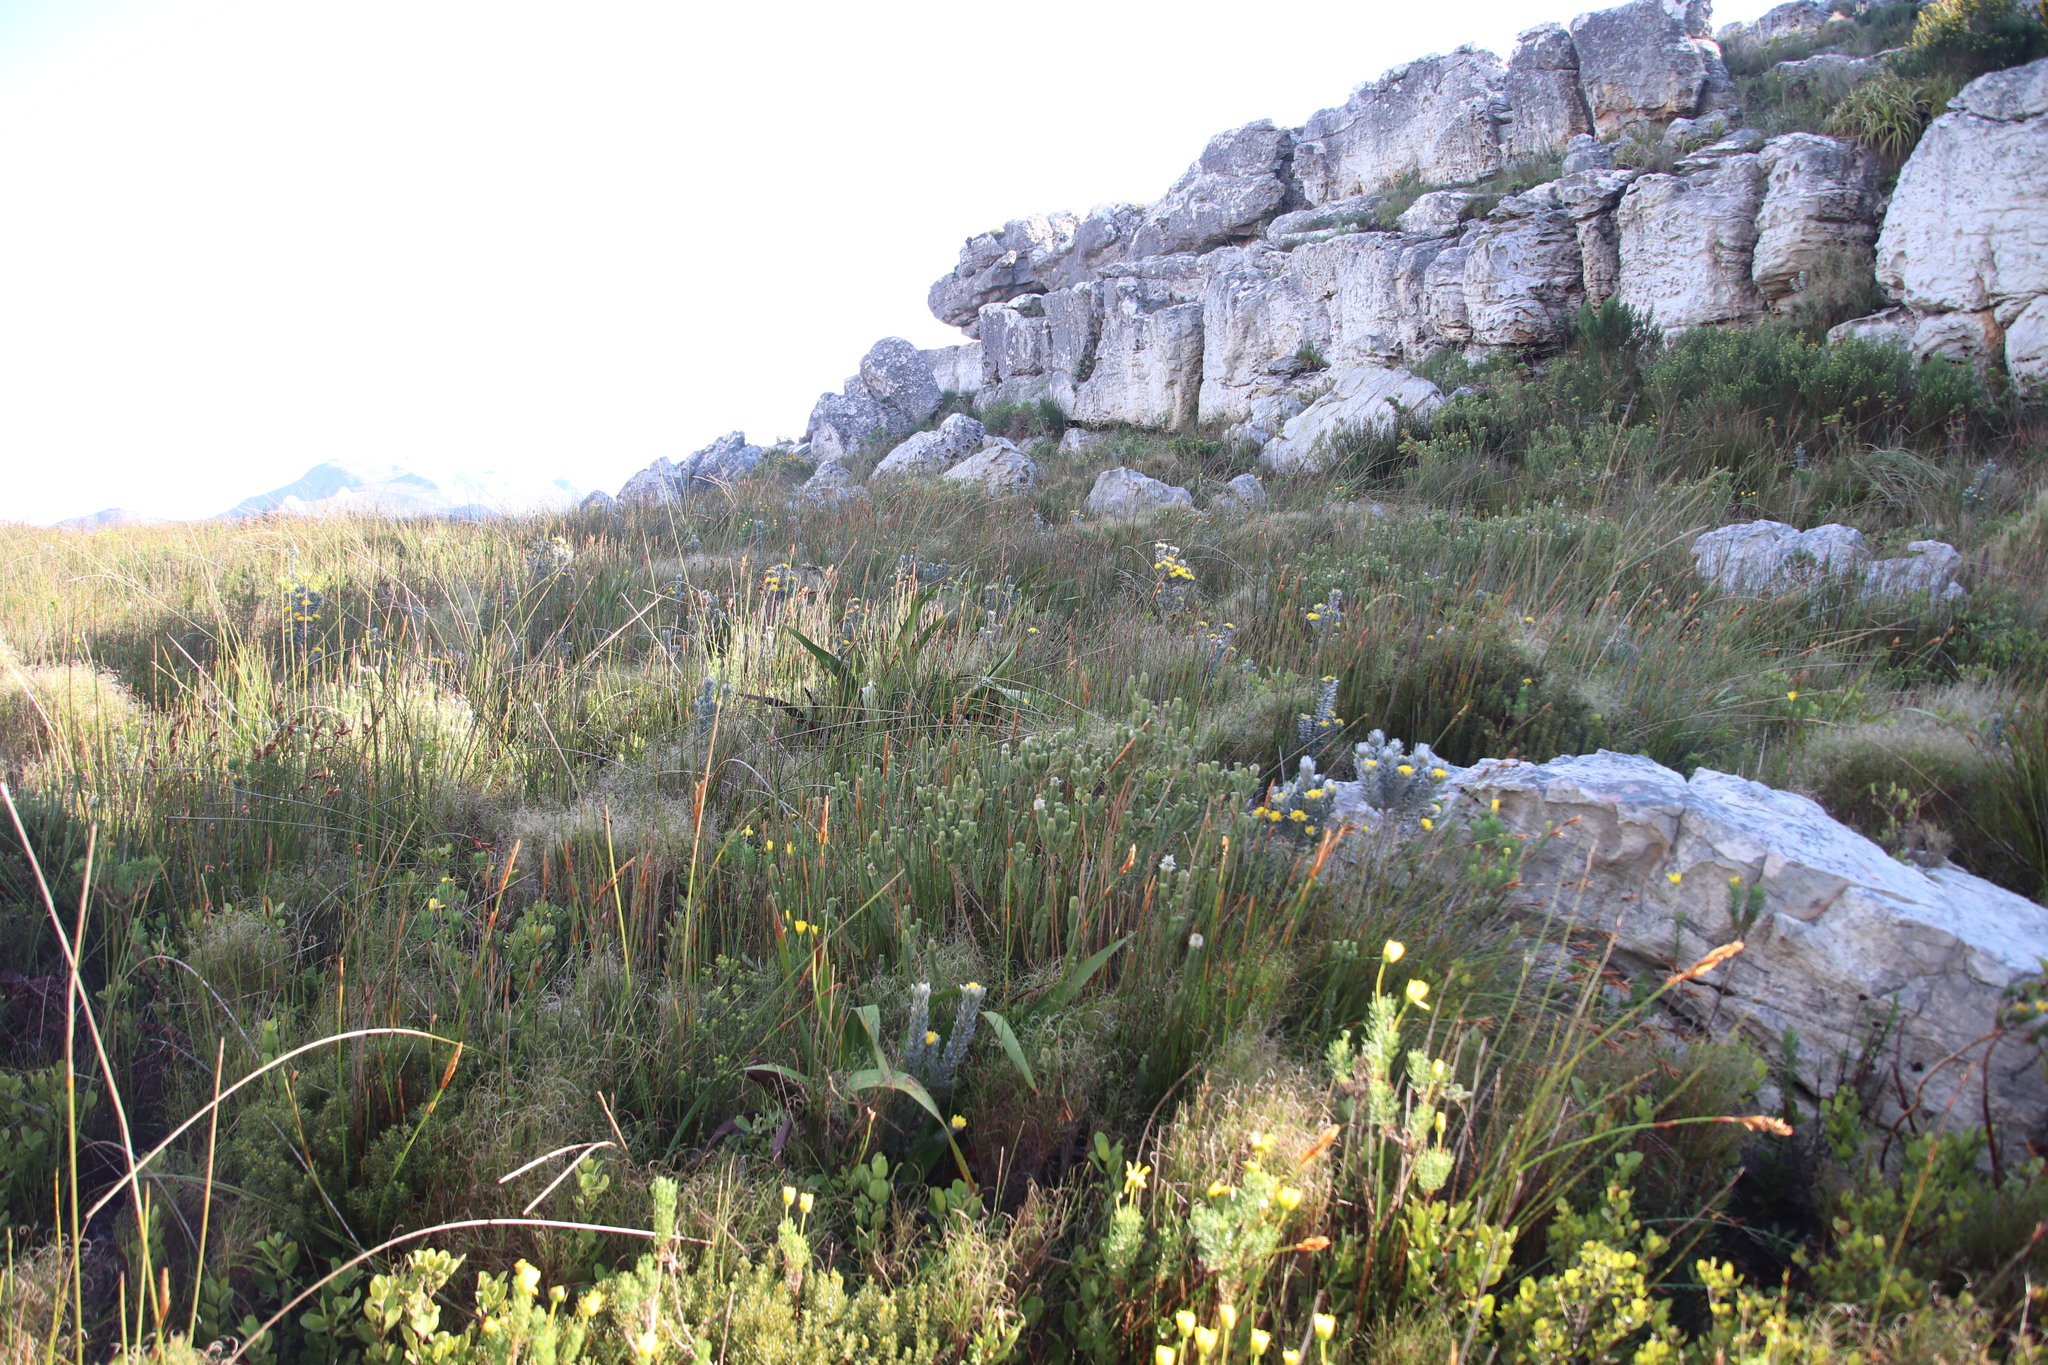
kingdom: Plantae
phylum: Tracheophyta
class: Magnoliopsida
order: Fabales
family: Fabaceae
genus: Xiphotheca
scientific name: Xiphotheca fruticosa
